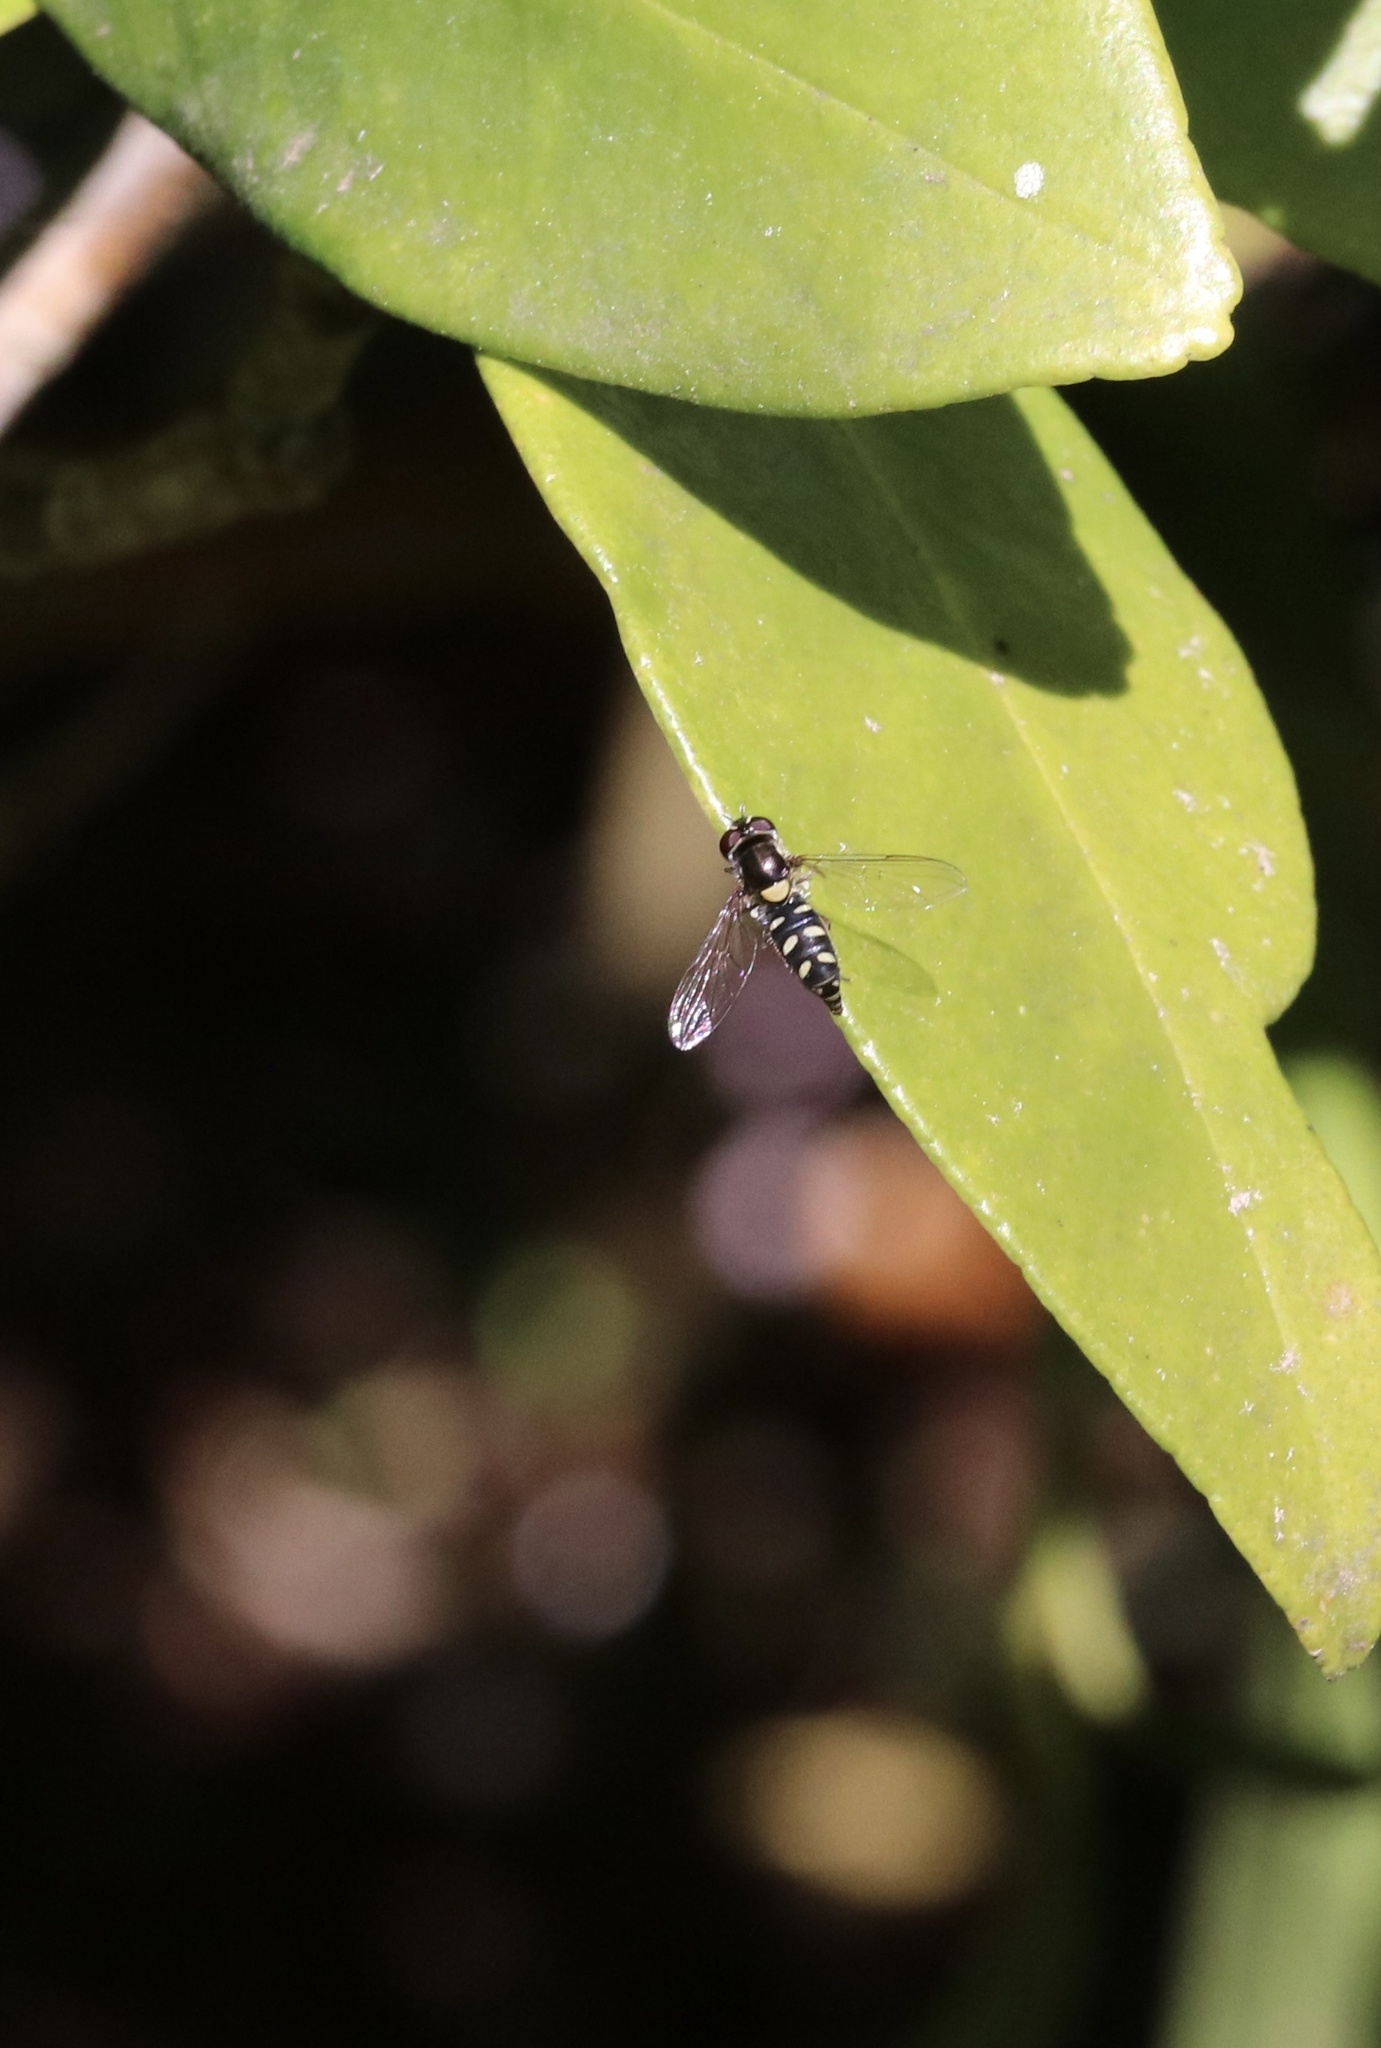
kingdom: Animalia
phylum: Arthropoda
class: Insecta
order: Diptera
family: Syrphidae
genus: Allograpta
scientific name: Allograpta hortensis
